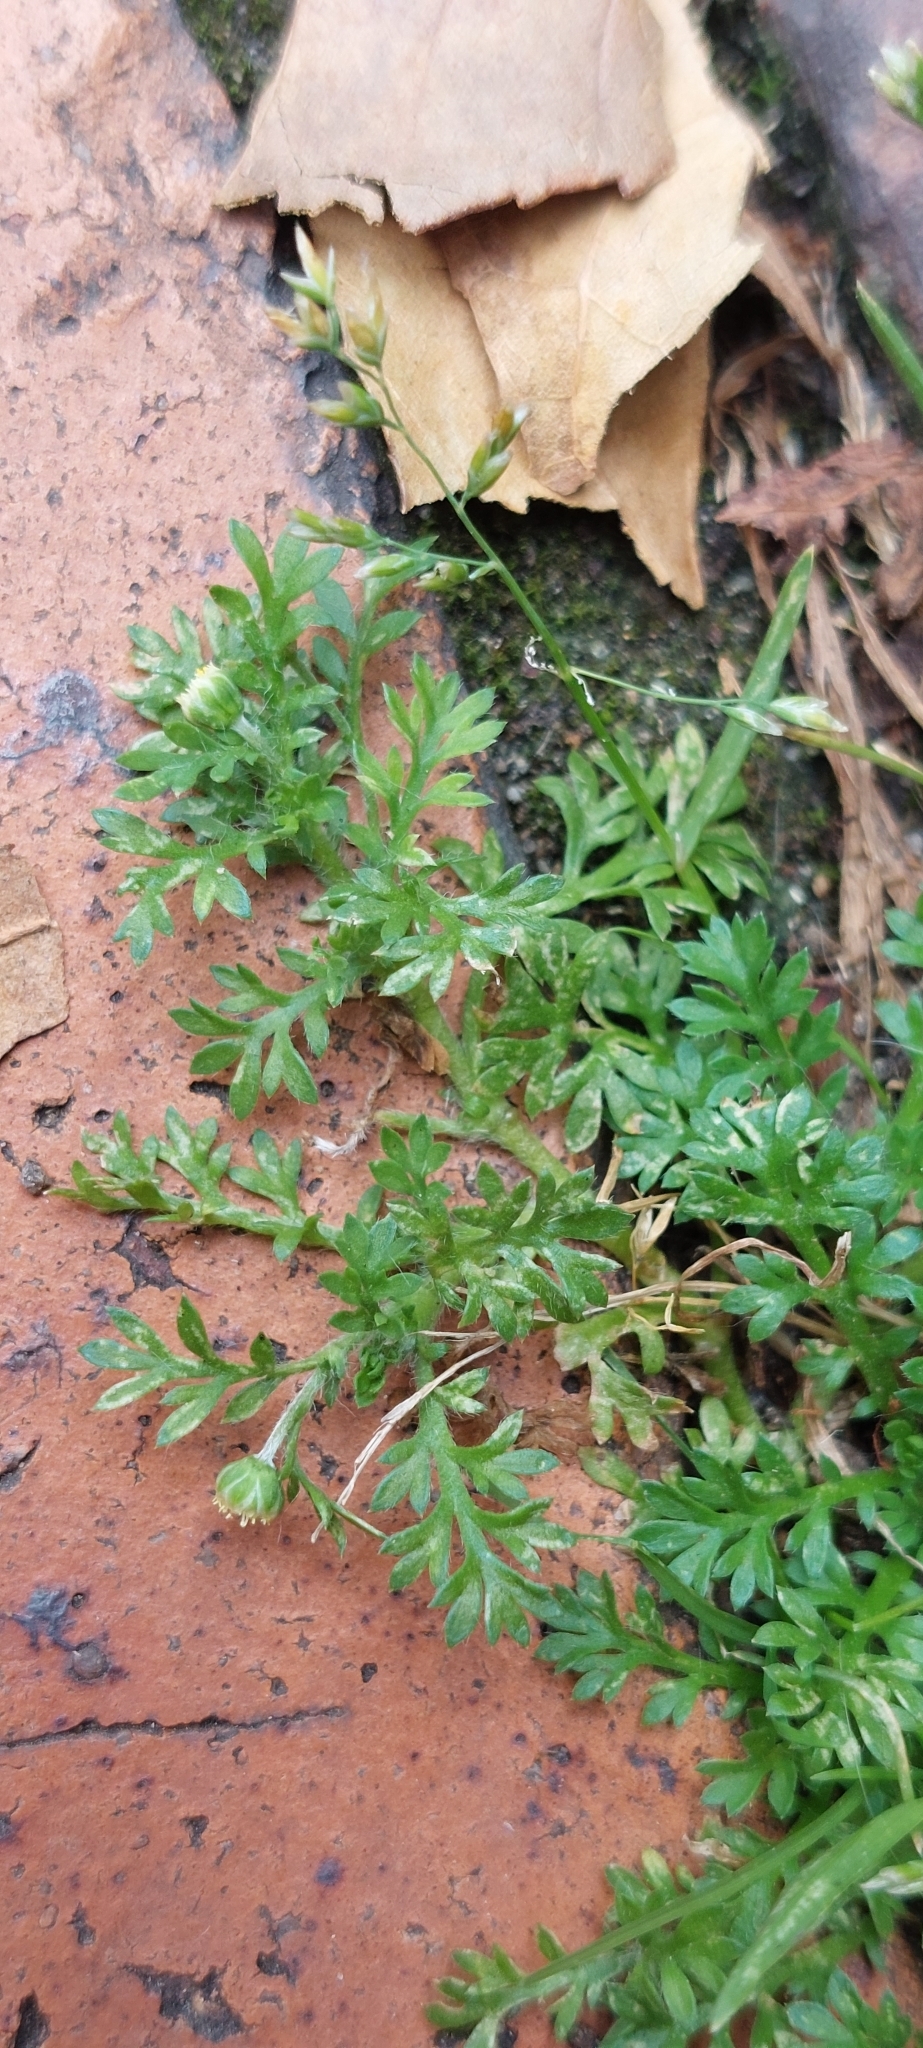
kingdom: Plantae
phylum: Tracheophyta
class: Magnoliopsida
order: Asterales
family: Asteraceae
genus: Cotula
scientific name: Cotula australis
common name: Australian waterbuttons
